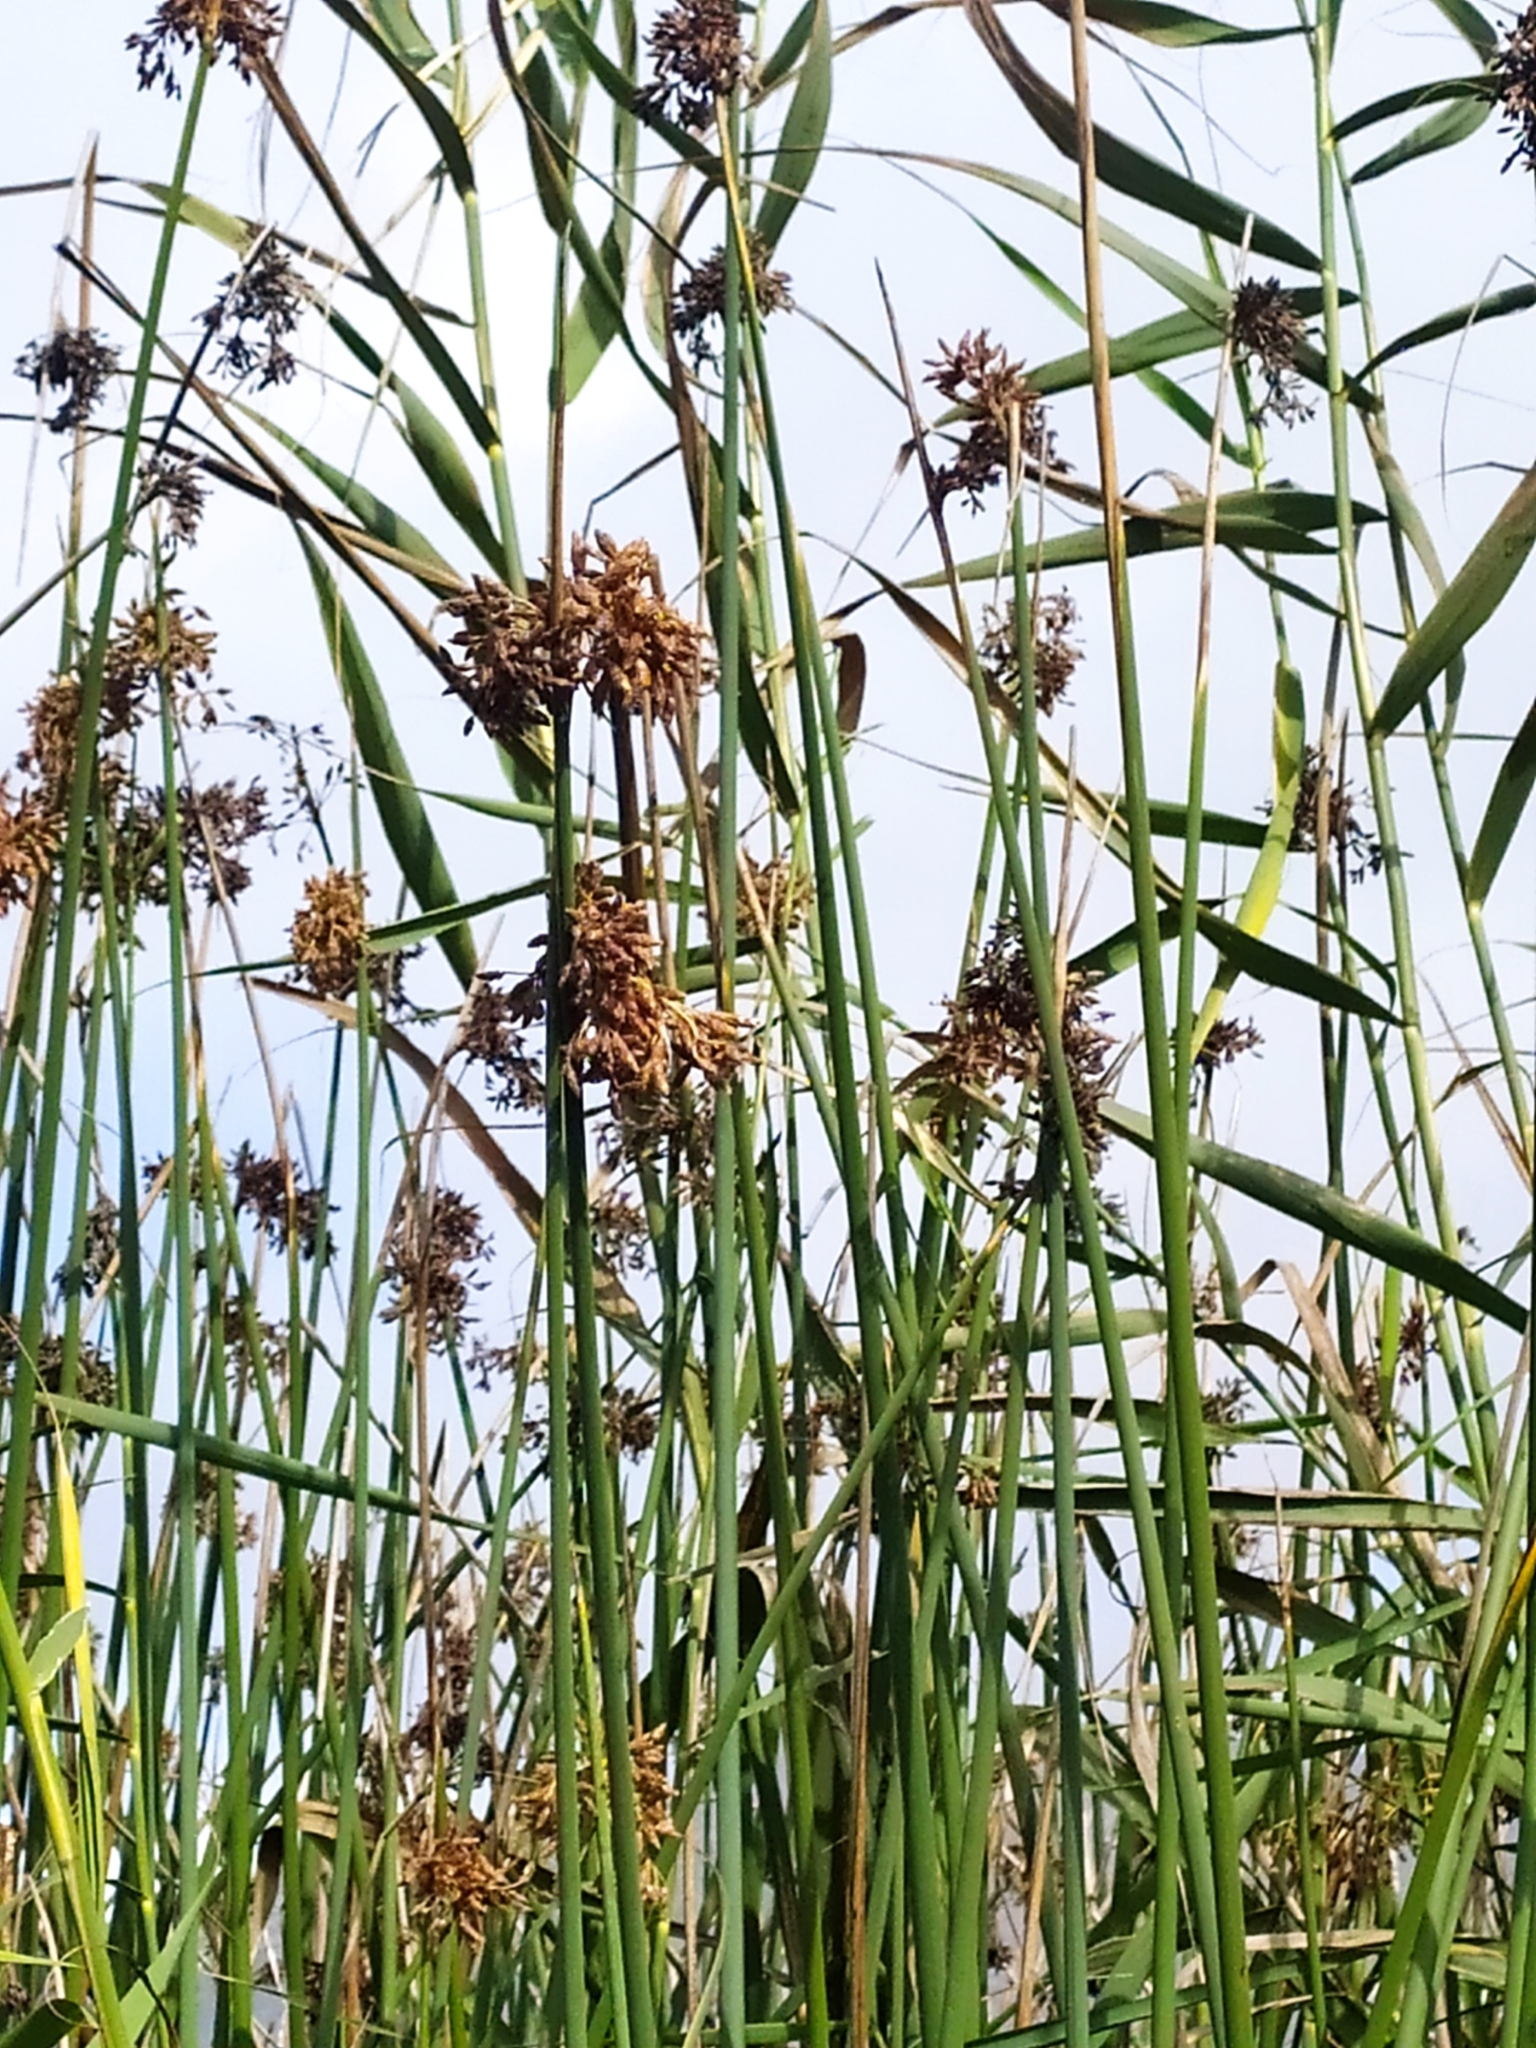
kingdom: Plantae
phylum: Tracheophyta
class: Liliopsida
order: Poales
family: Cyperaceae
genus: Schoenoplectus
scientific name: Schoenoplectus scirpoides
